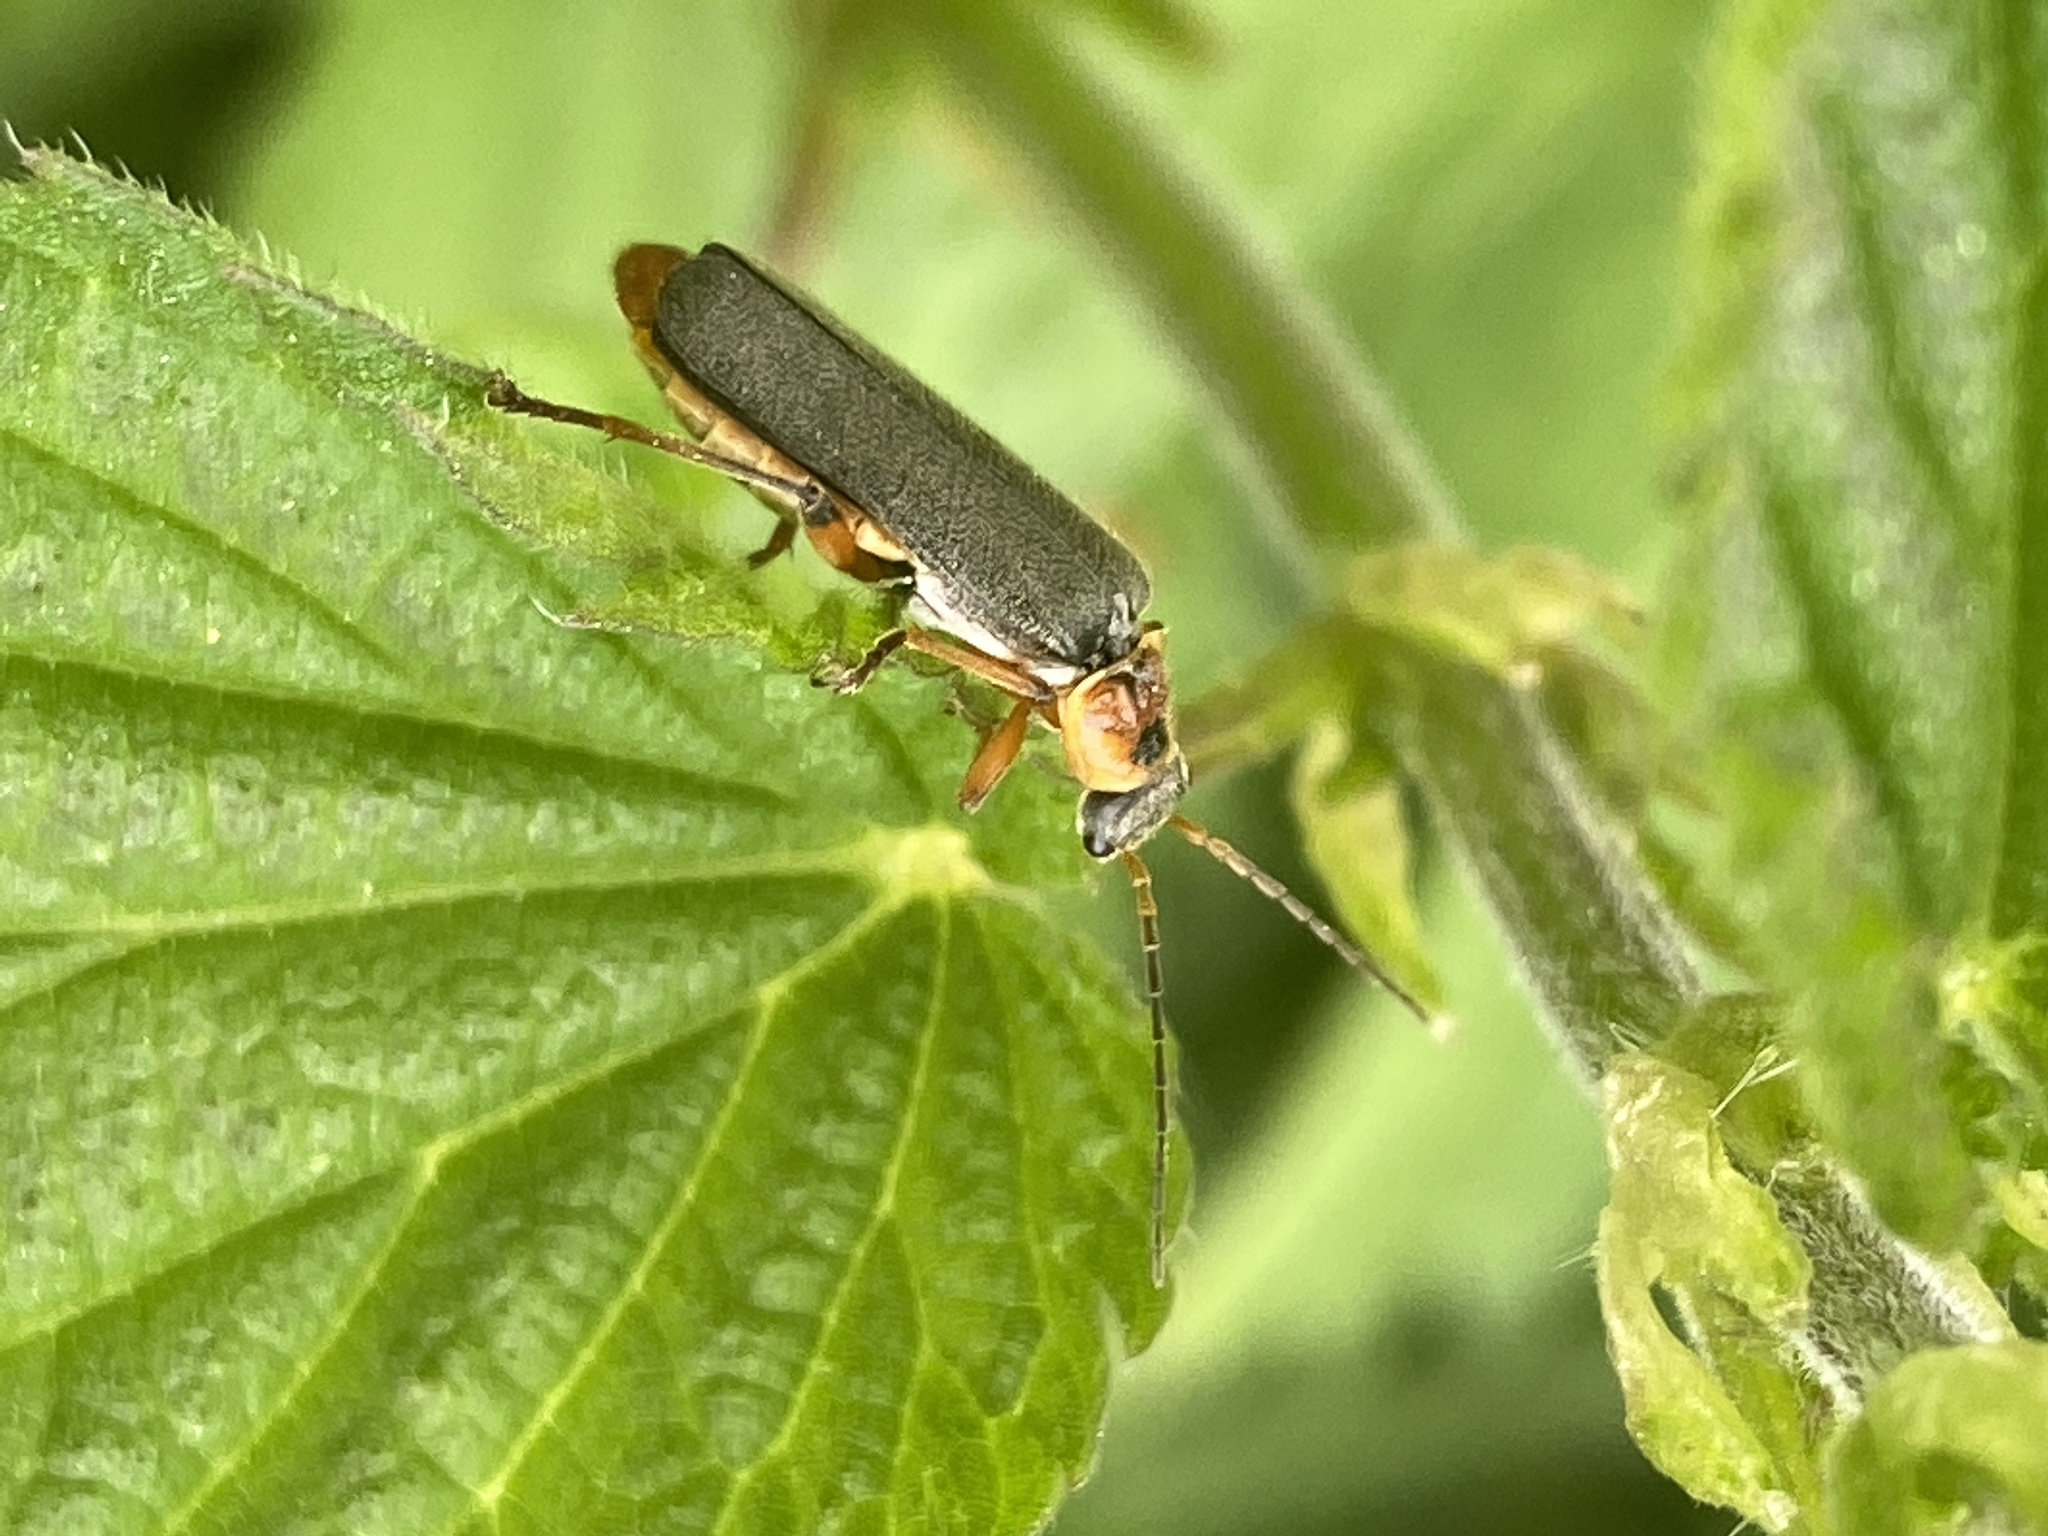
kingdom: Animalia
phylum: Arthropoda
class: Insecta
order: Coleoptera
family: Cantharidae
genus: Cantharis
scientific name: Cantharis nigricans
